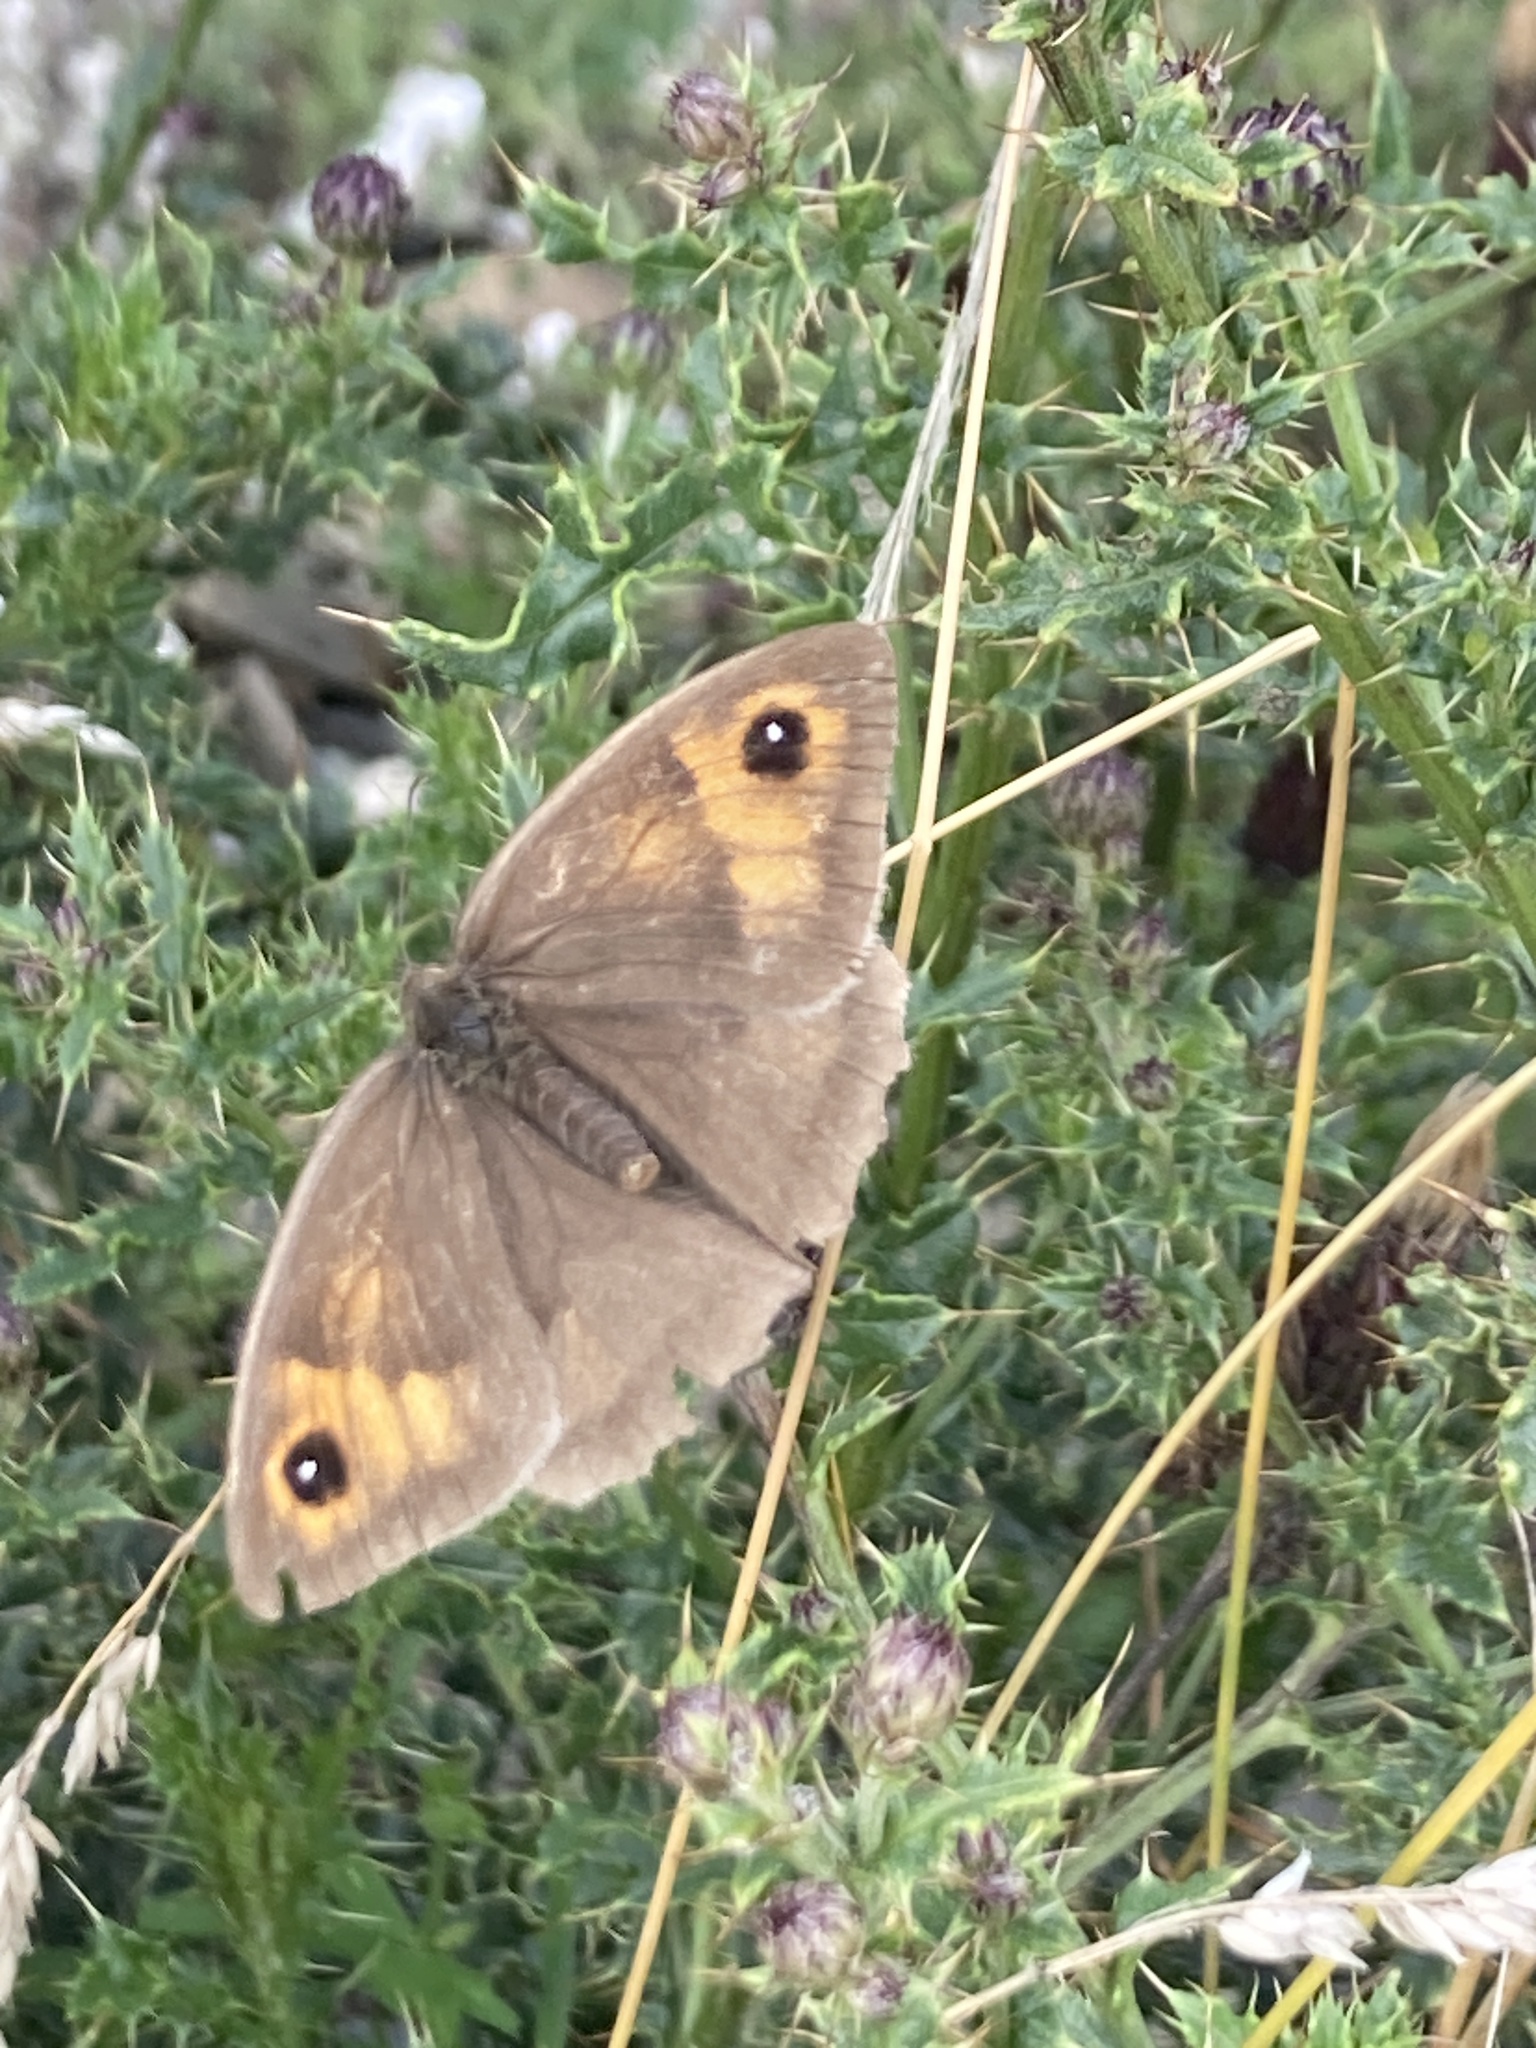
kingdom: Animalia
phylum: Arthropoda
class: Insecta
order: Lepidoptera
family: Nymphalidae
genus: Maniola
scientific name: Maniola jurtina
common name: Meadow brown
